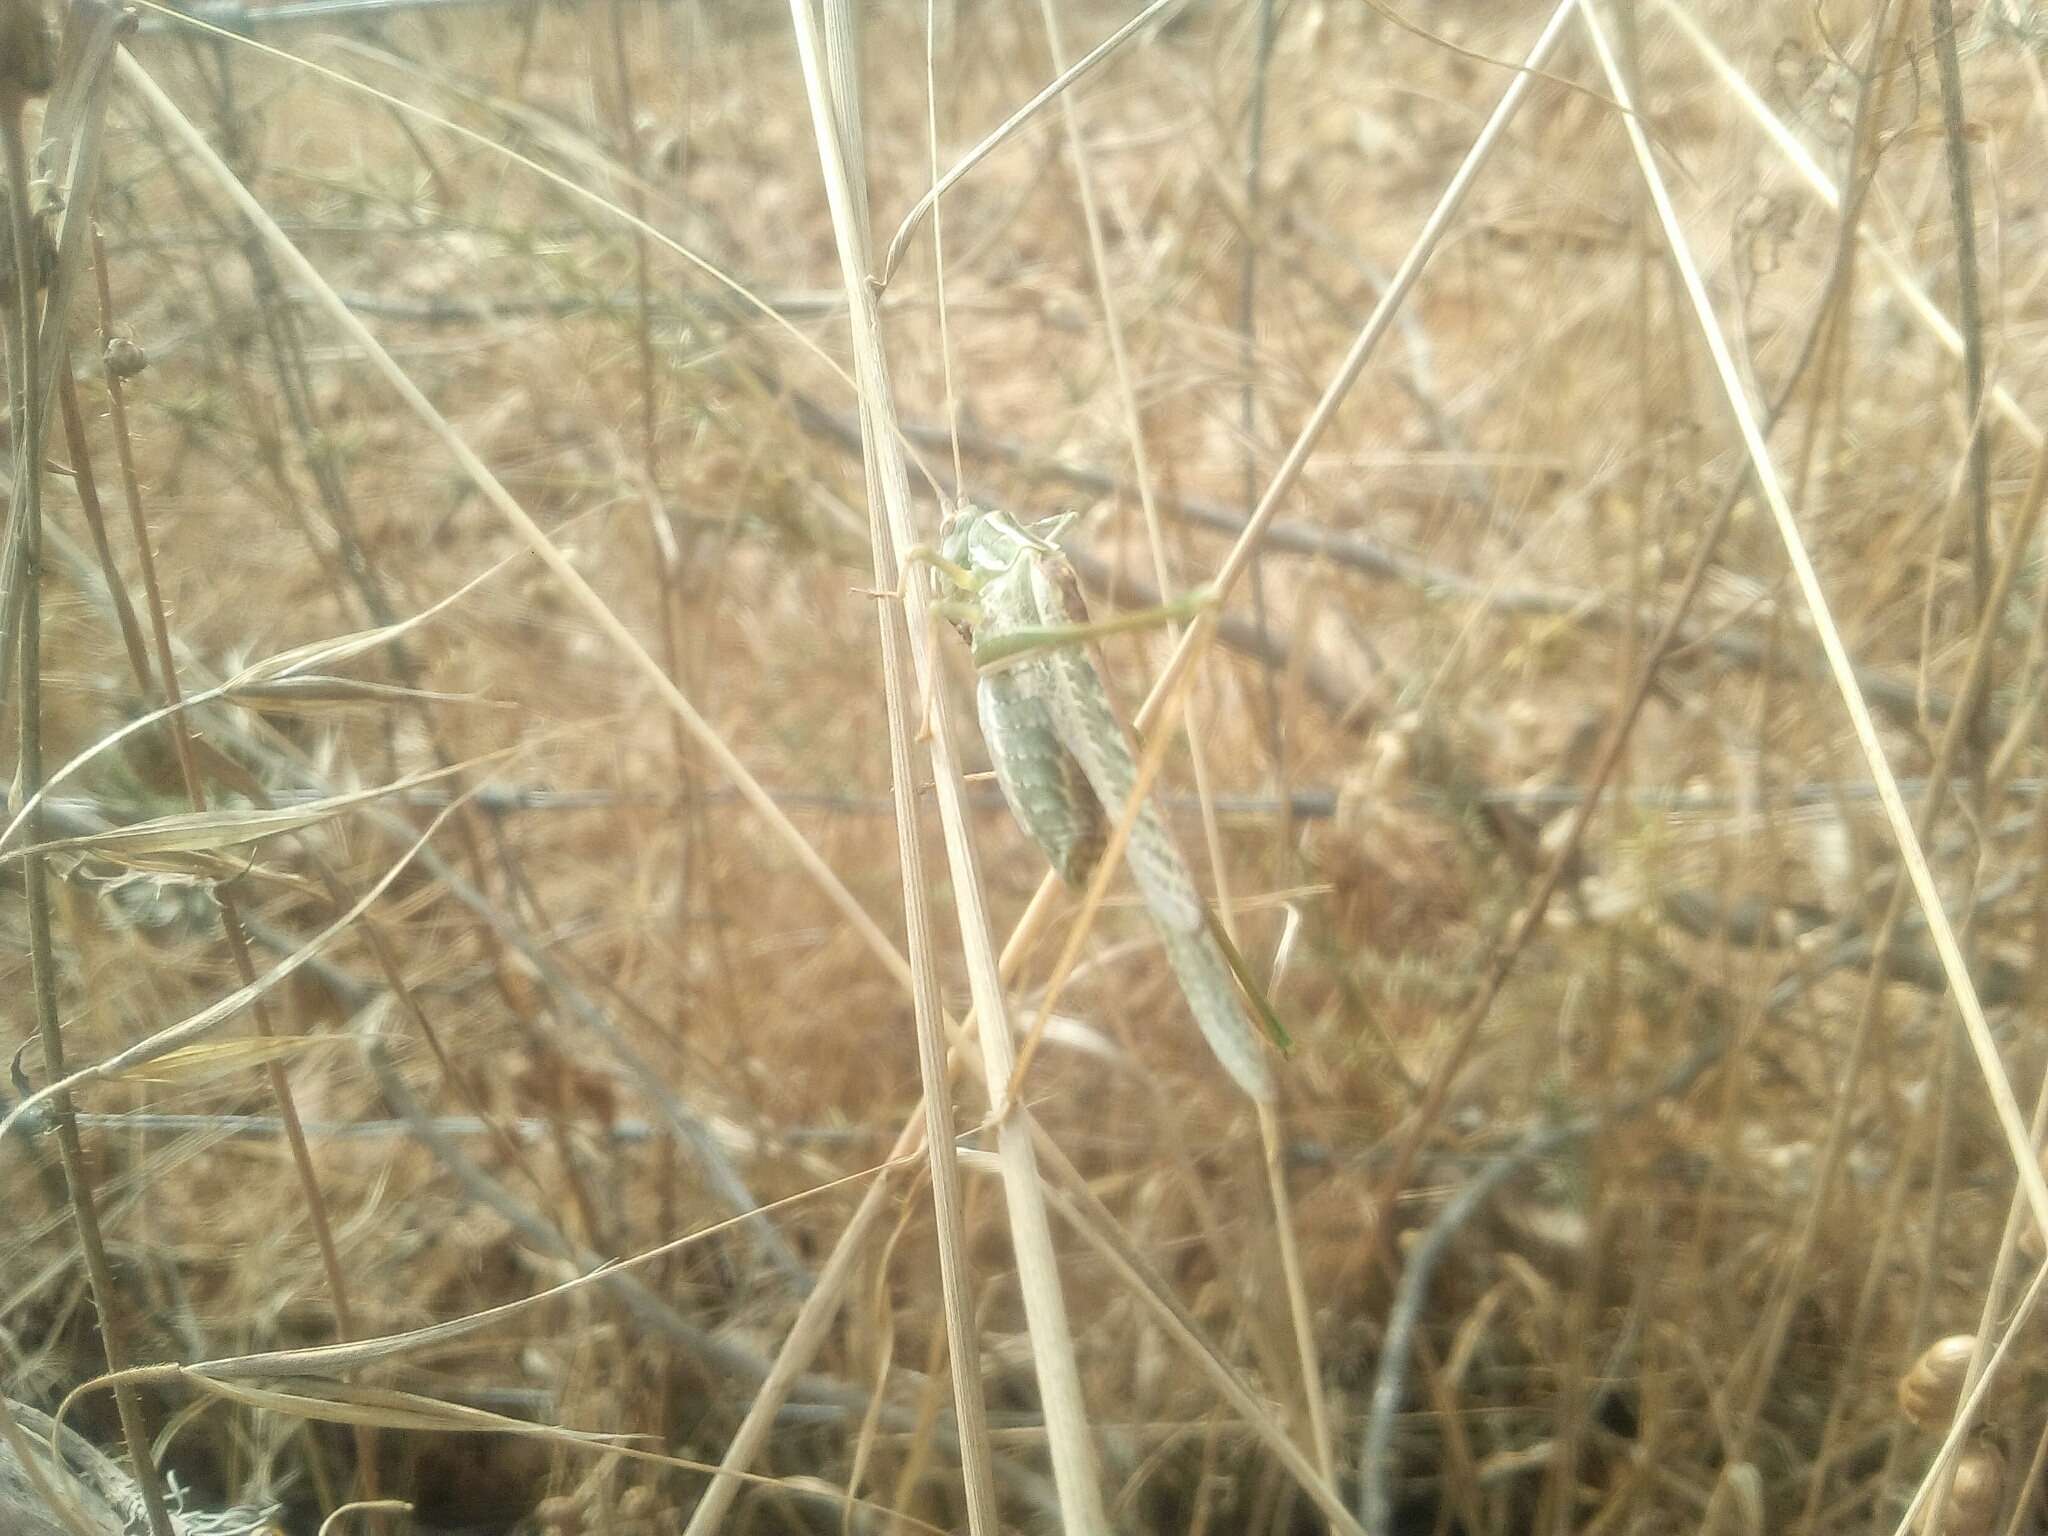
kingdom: Animalia
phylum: Arthropoda
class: Insecta
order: Orthoptera
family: Tettigoniidae
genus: Tylopsis
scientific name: Tylopsis lilifolia
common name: Lily bush-cricket
